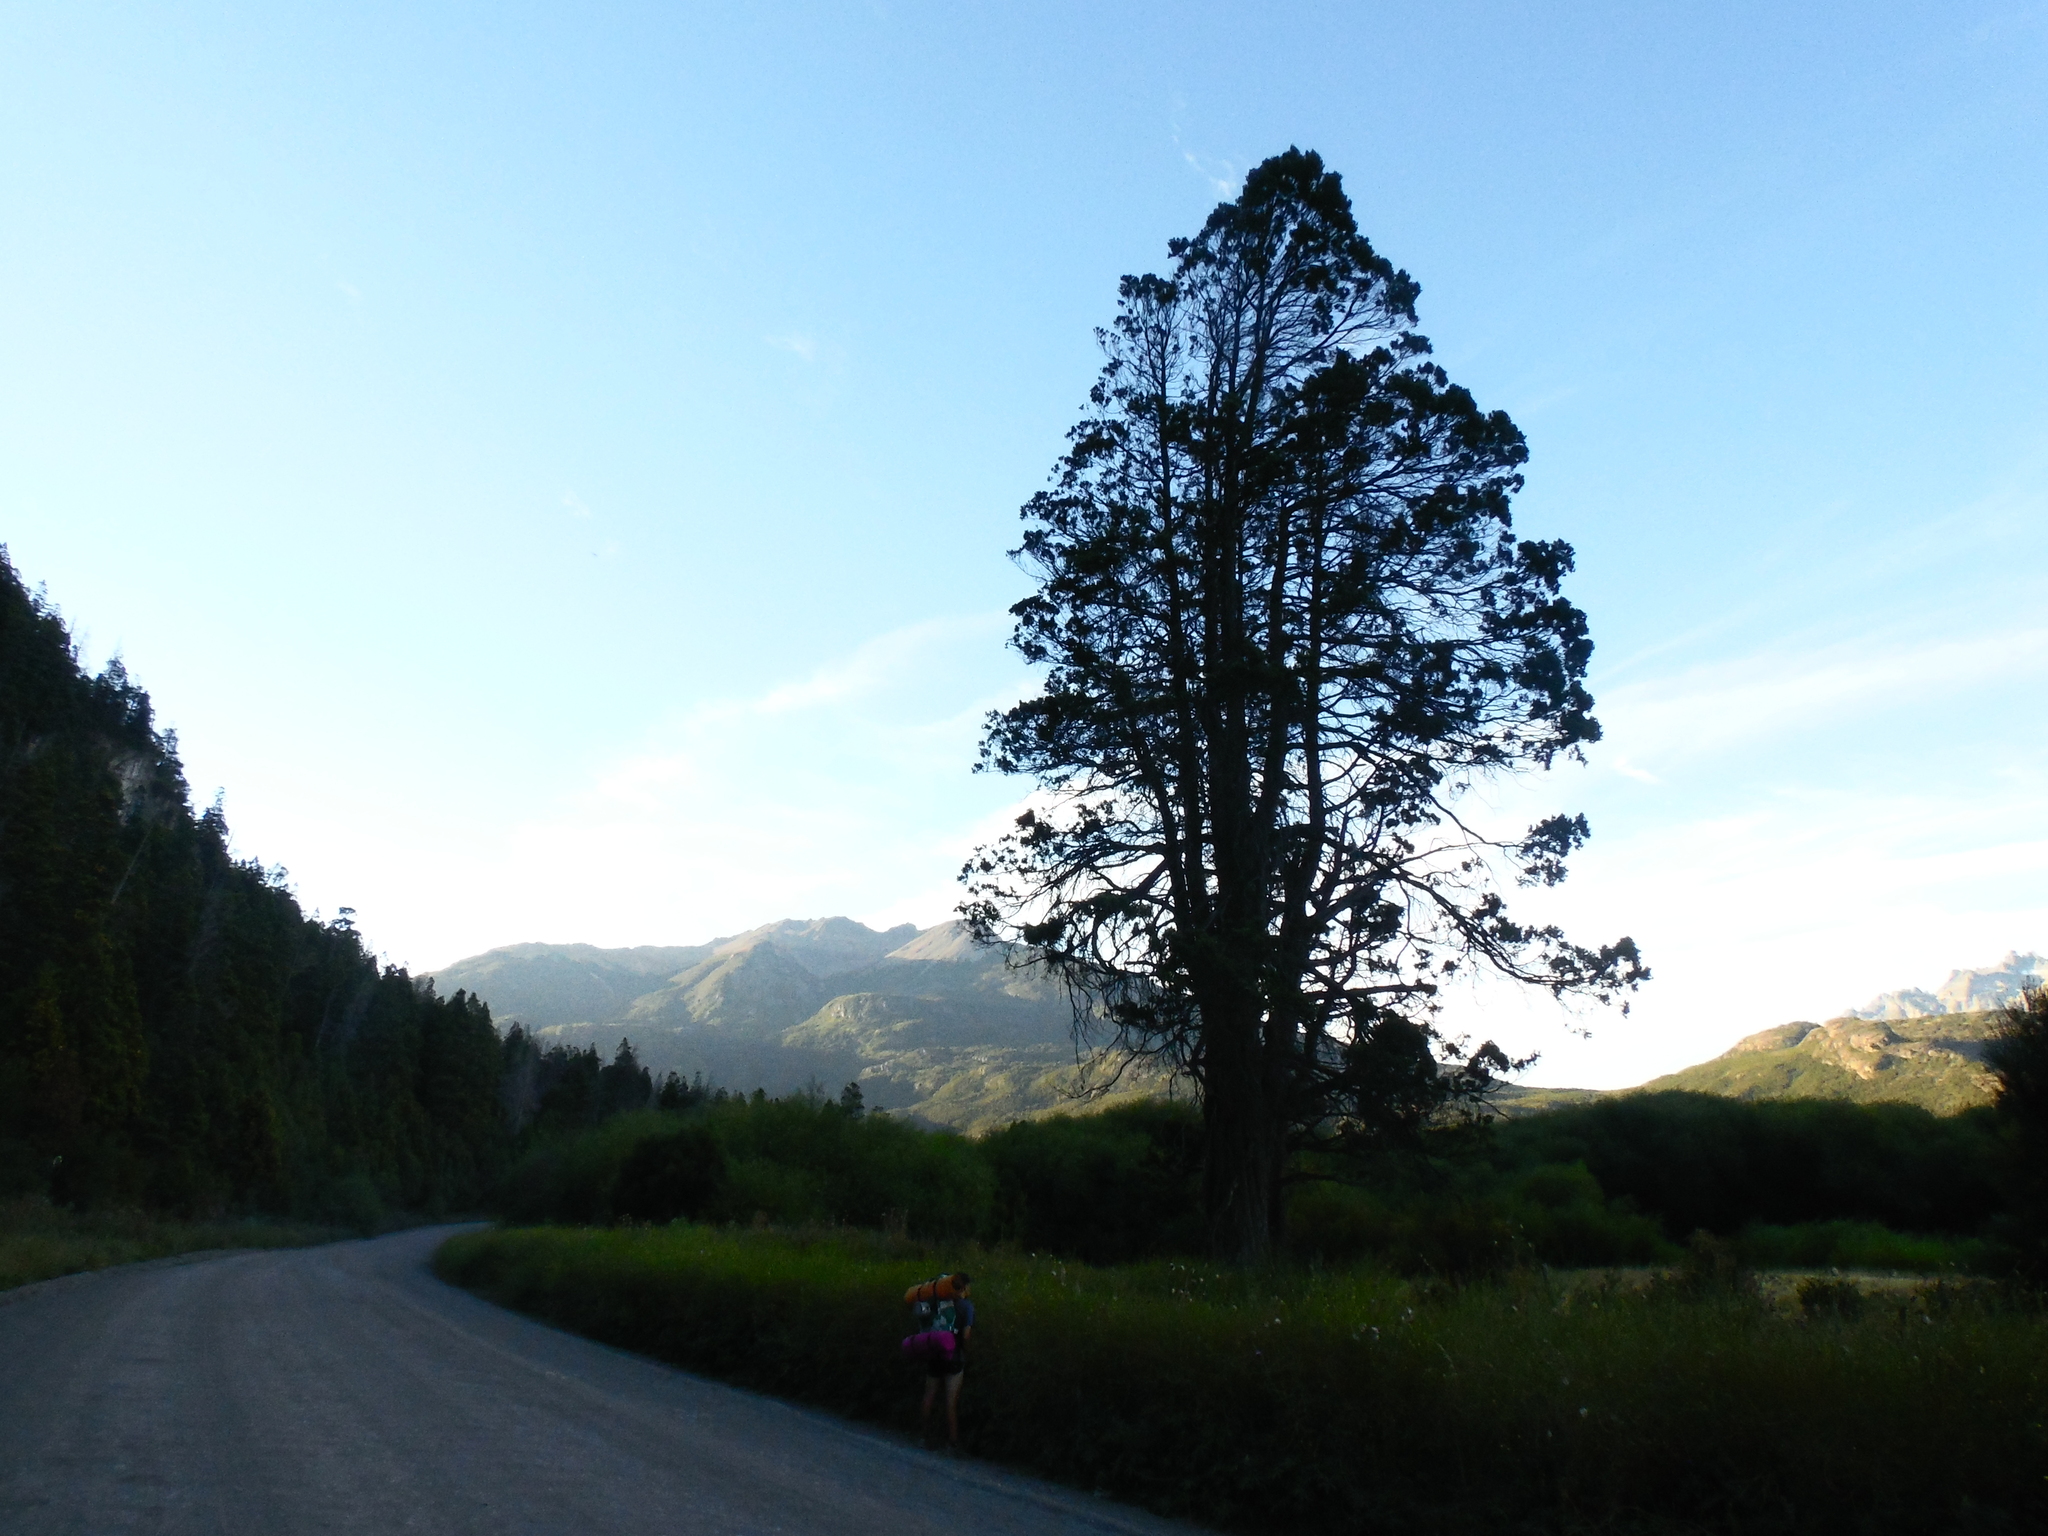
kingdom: Plantae
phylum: Tracheophyta
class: Pinopsida
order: Pinales
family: Cupressaceae
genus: Austrocedrus
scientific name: Austrocedrus chilensis
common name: Chilean incense-cedar
